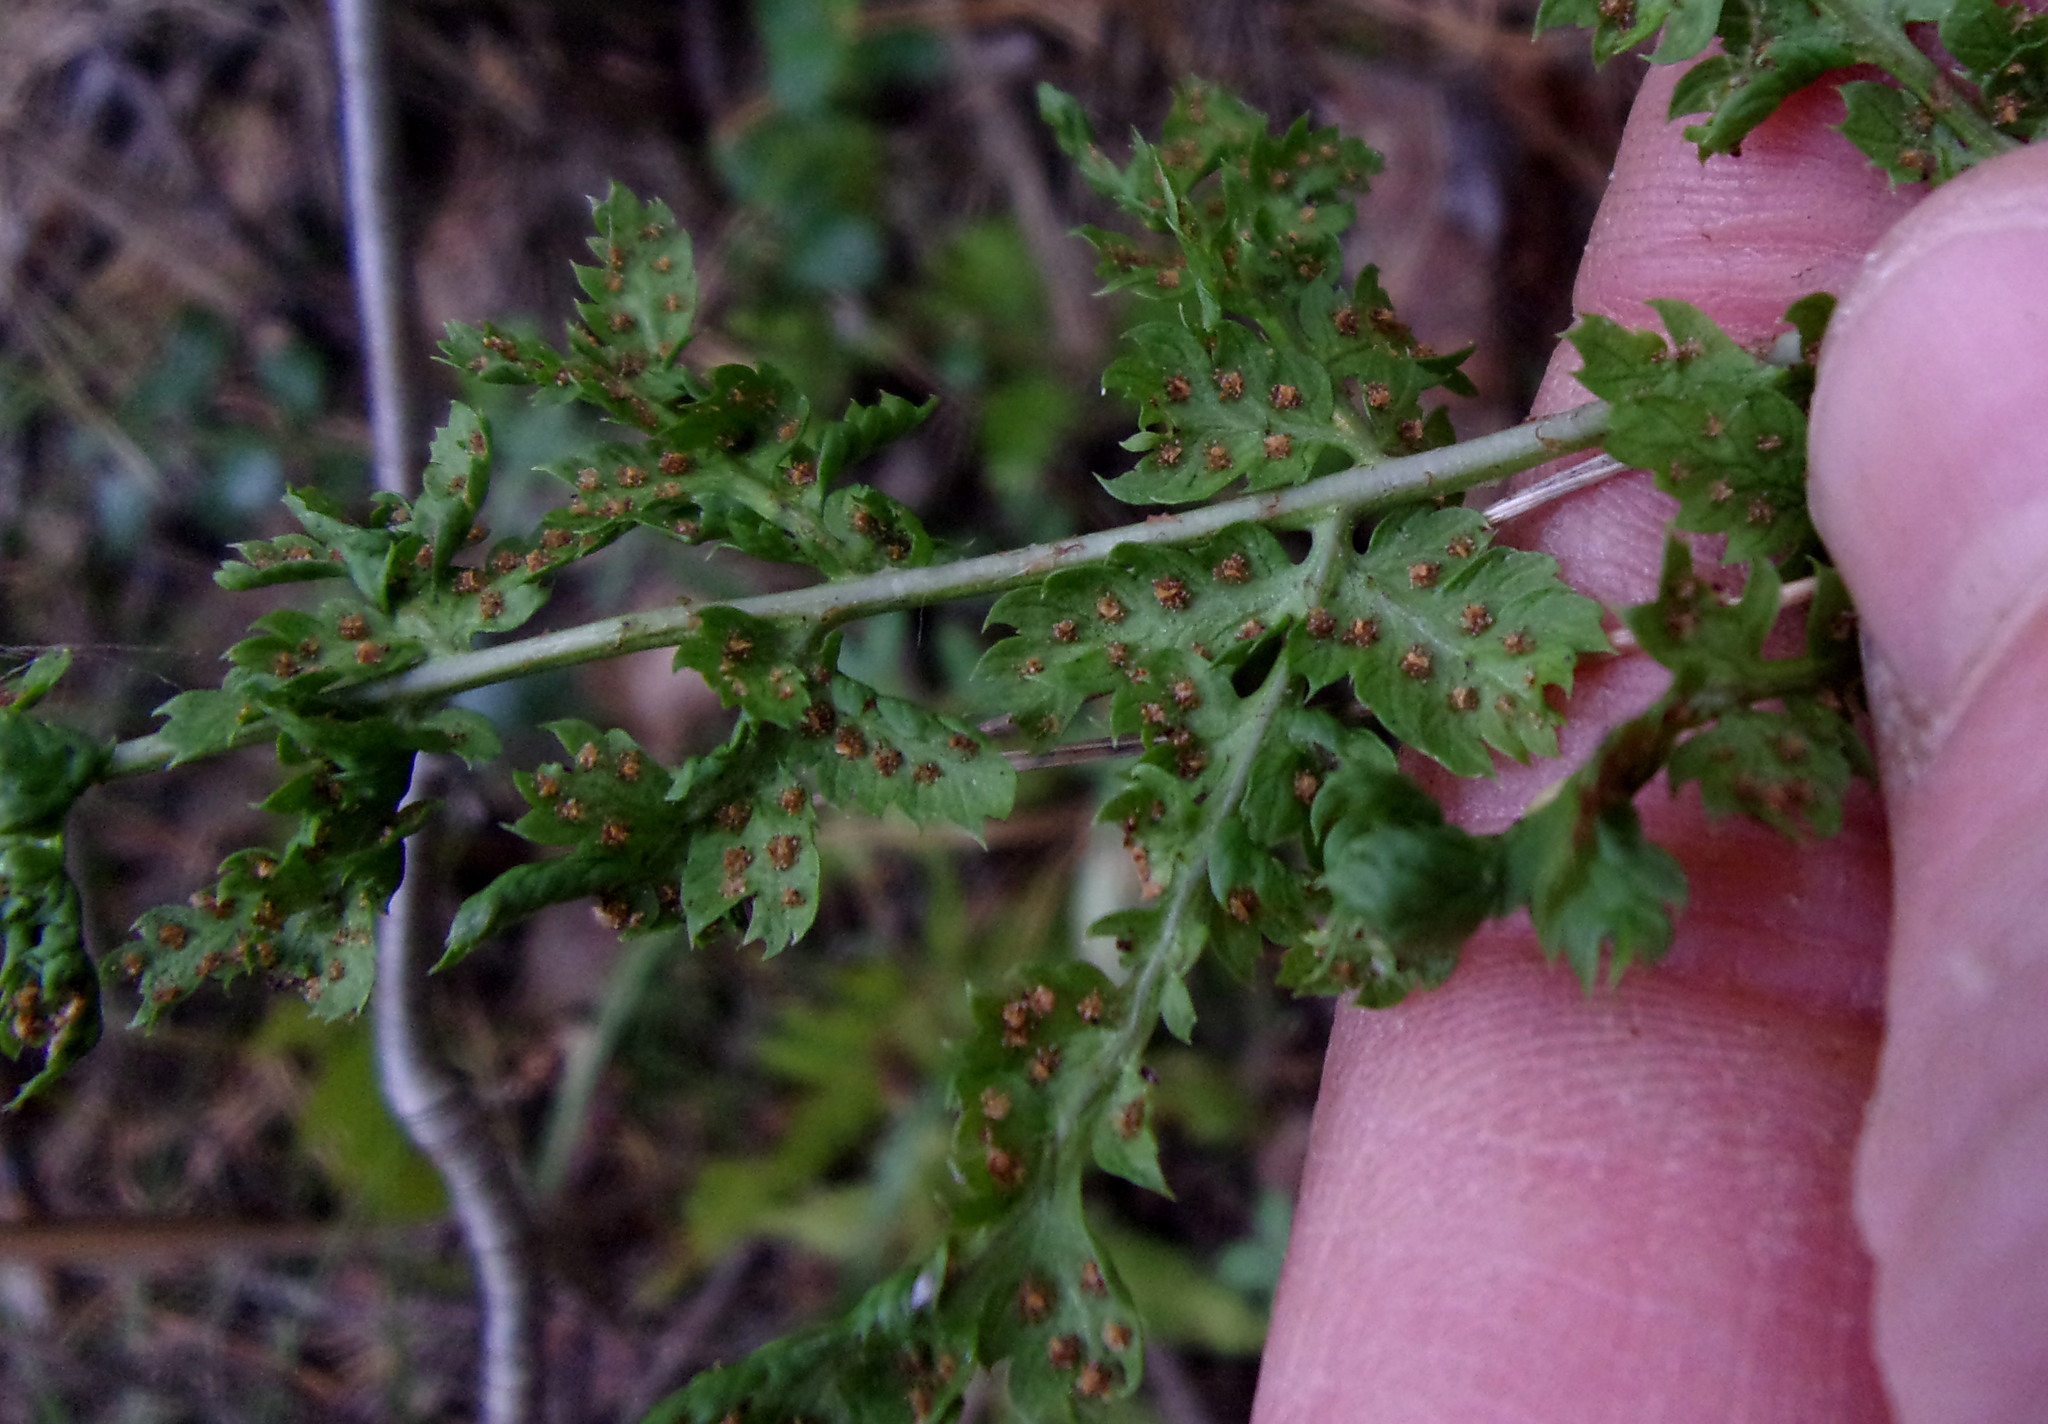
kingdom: Plantae
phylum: Tracheophyta
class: Polypodiopsida
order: Polypodiales
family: Dryopteridaceae
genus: Dryopteris
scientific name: Dryopteris carthusiana
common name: Narrow buckler-fern
